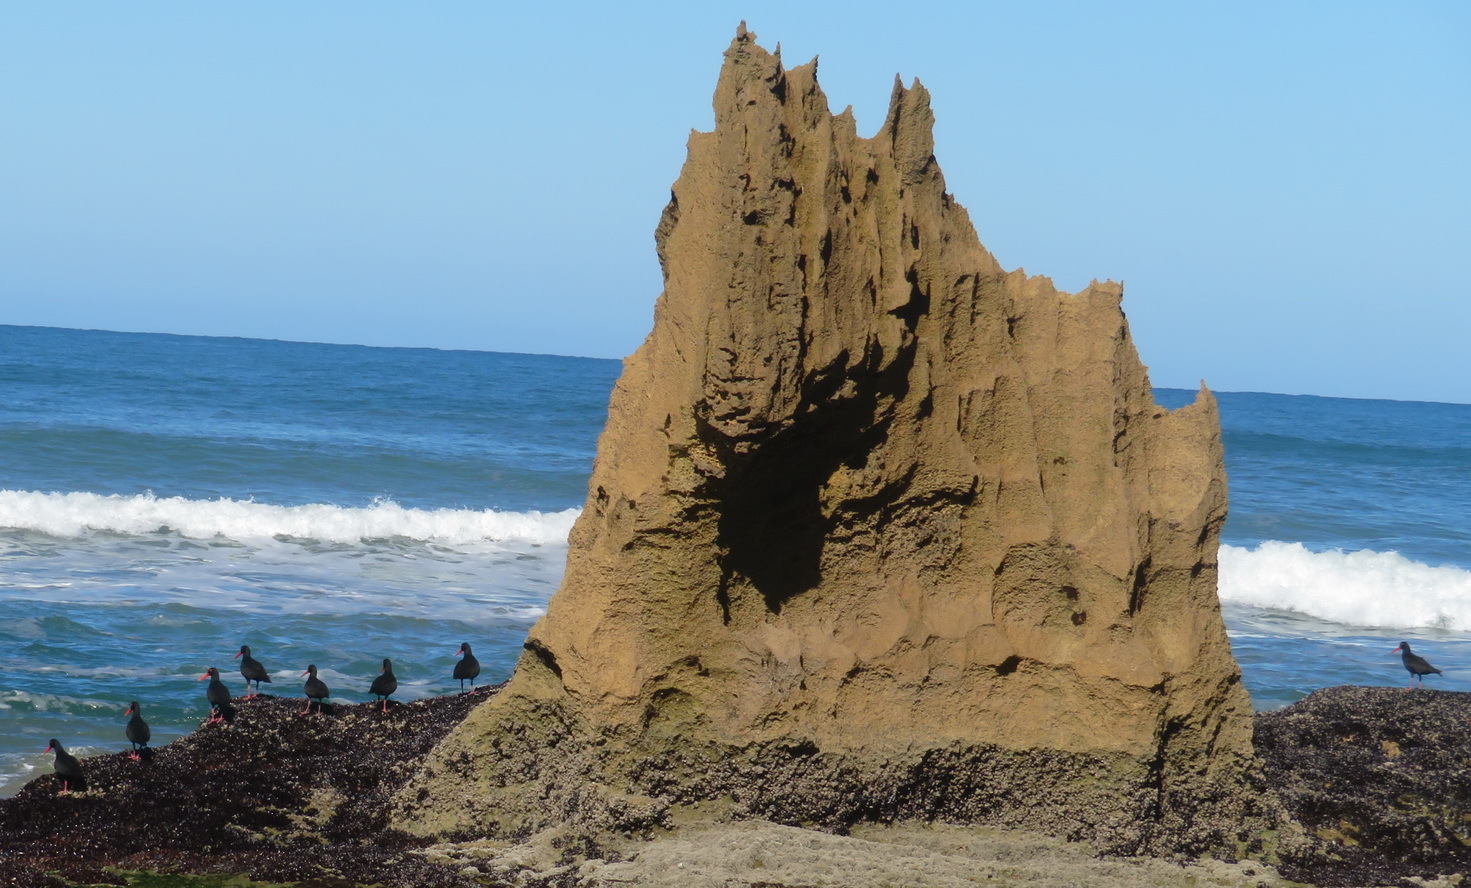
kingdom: Animalia
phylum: Chordata
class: Aves
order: Charadriiformes
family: Haematopodidae
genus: Haematopus
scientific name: Haematopus moquini
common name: African oystercatcher
